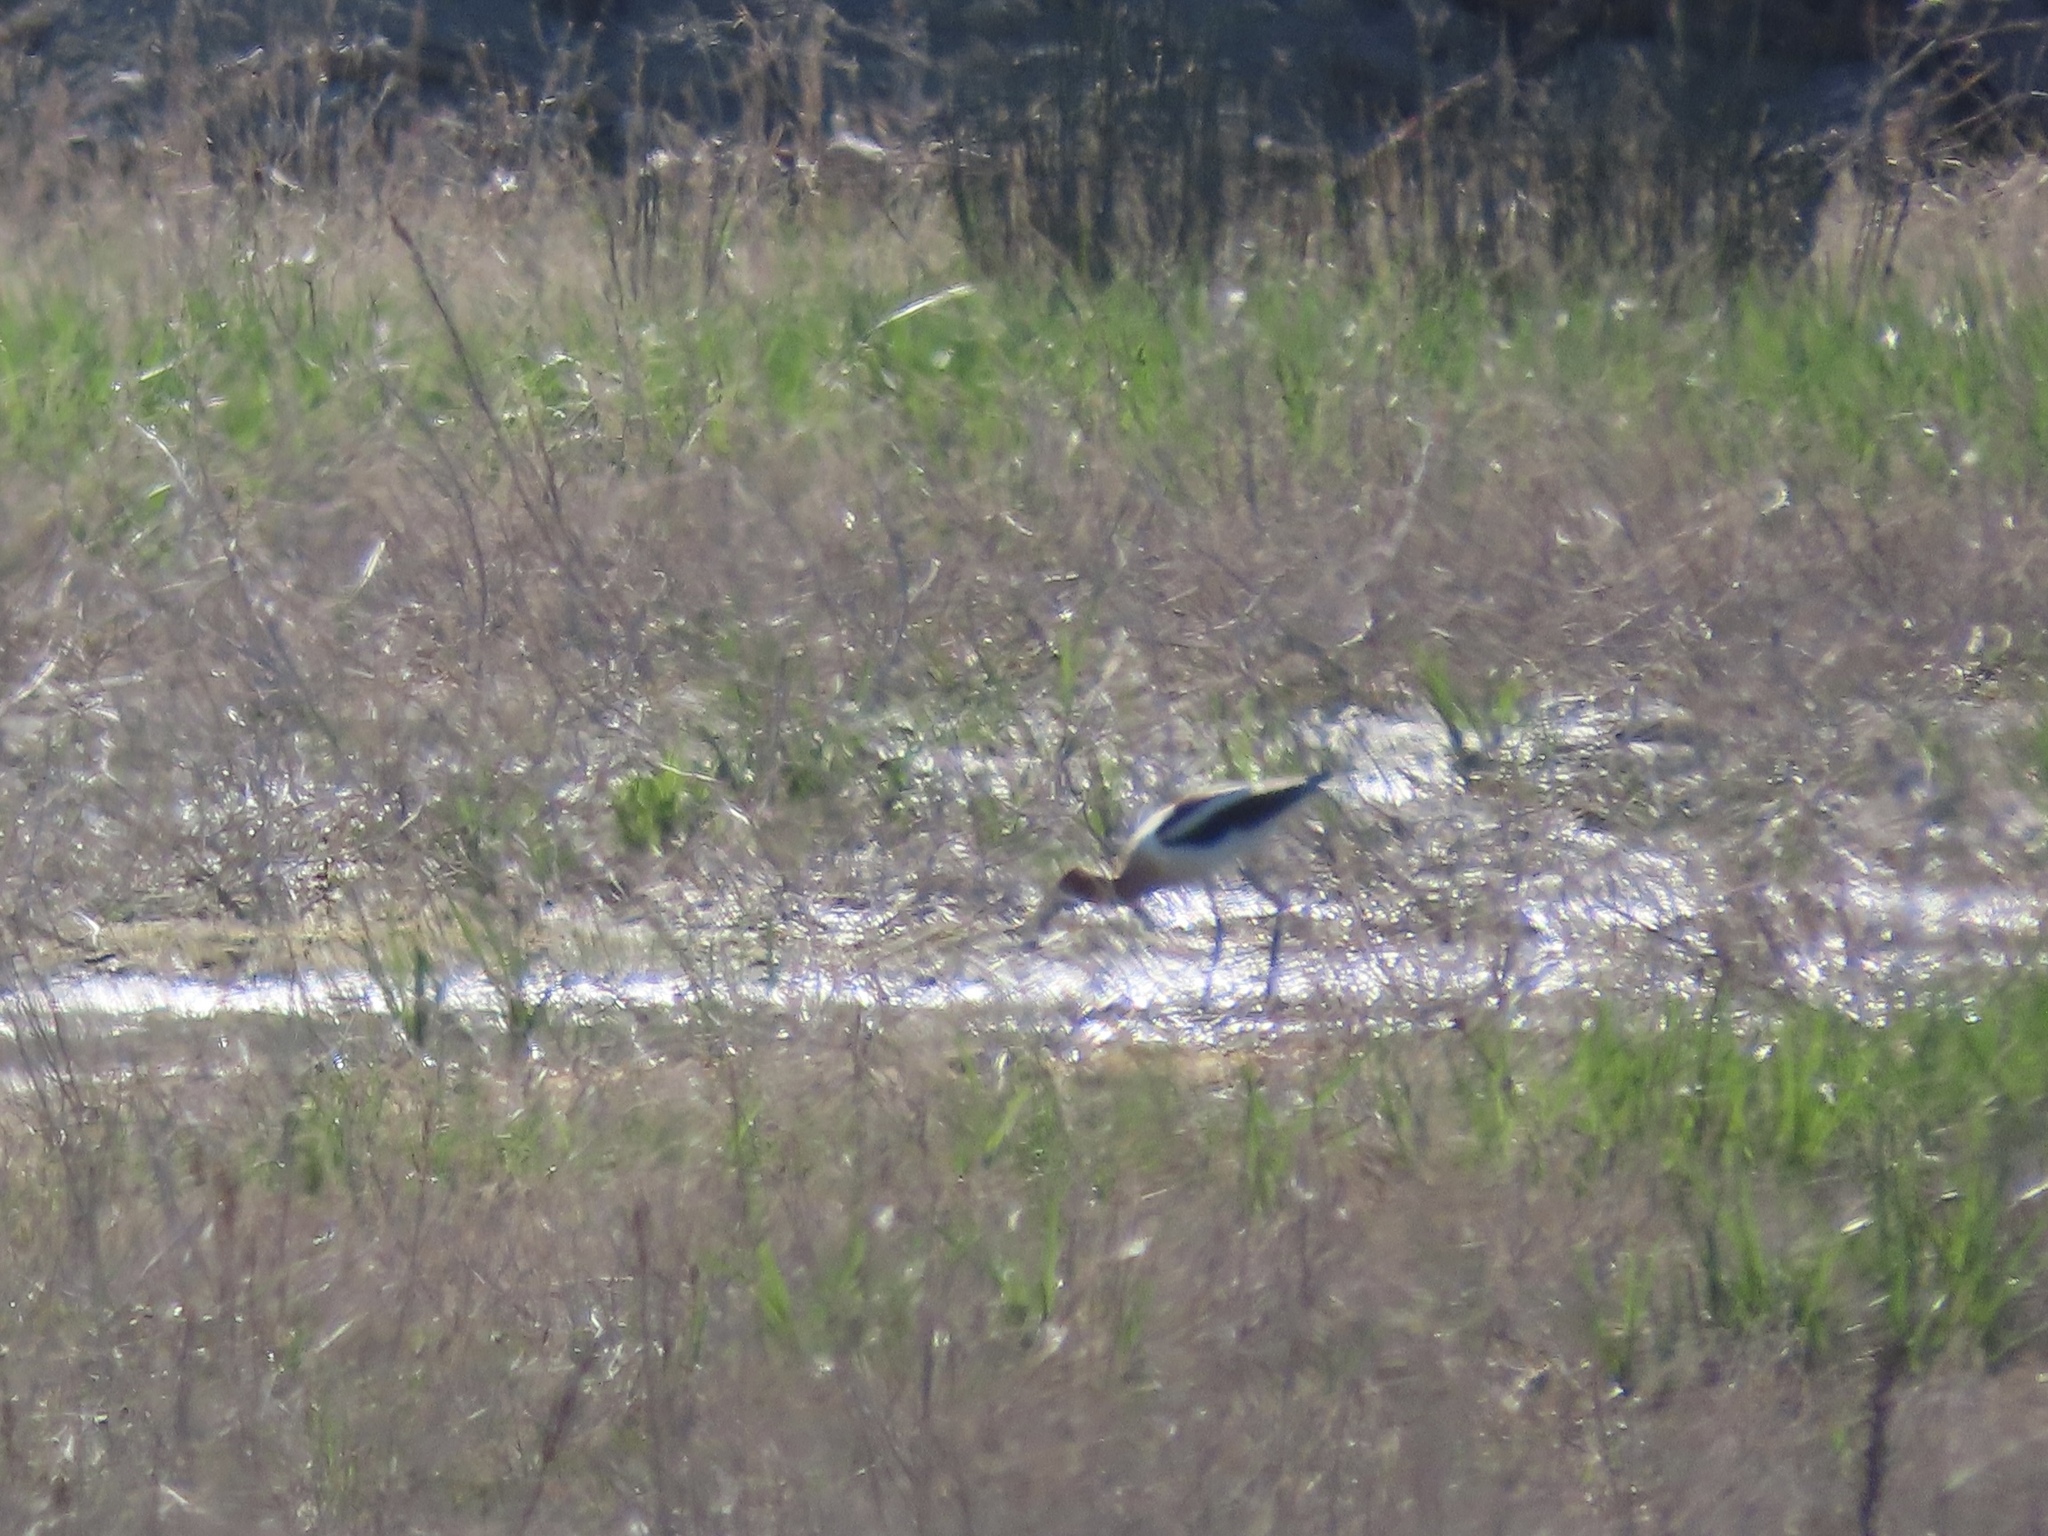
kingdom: Animalia
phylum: Chordata
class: Aves
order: Charadriiformes
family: Recurvirostridae
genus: Recurvirostra
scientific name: Recurvirostra americana
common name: American avocet
